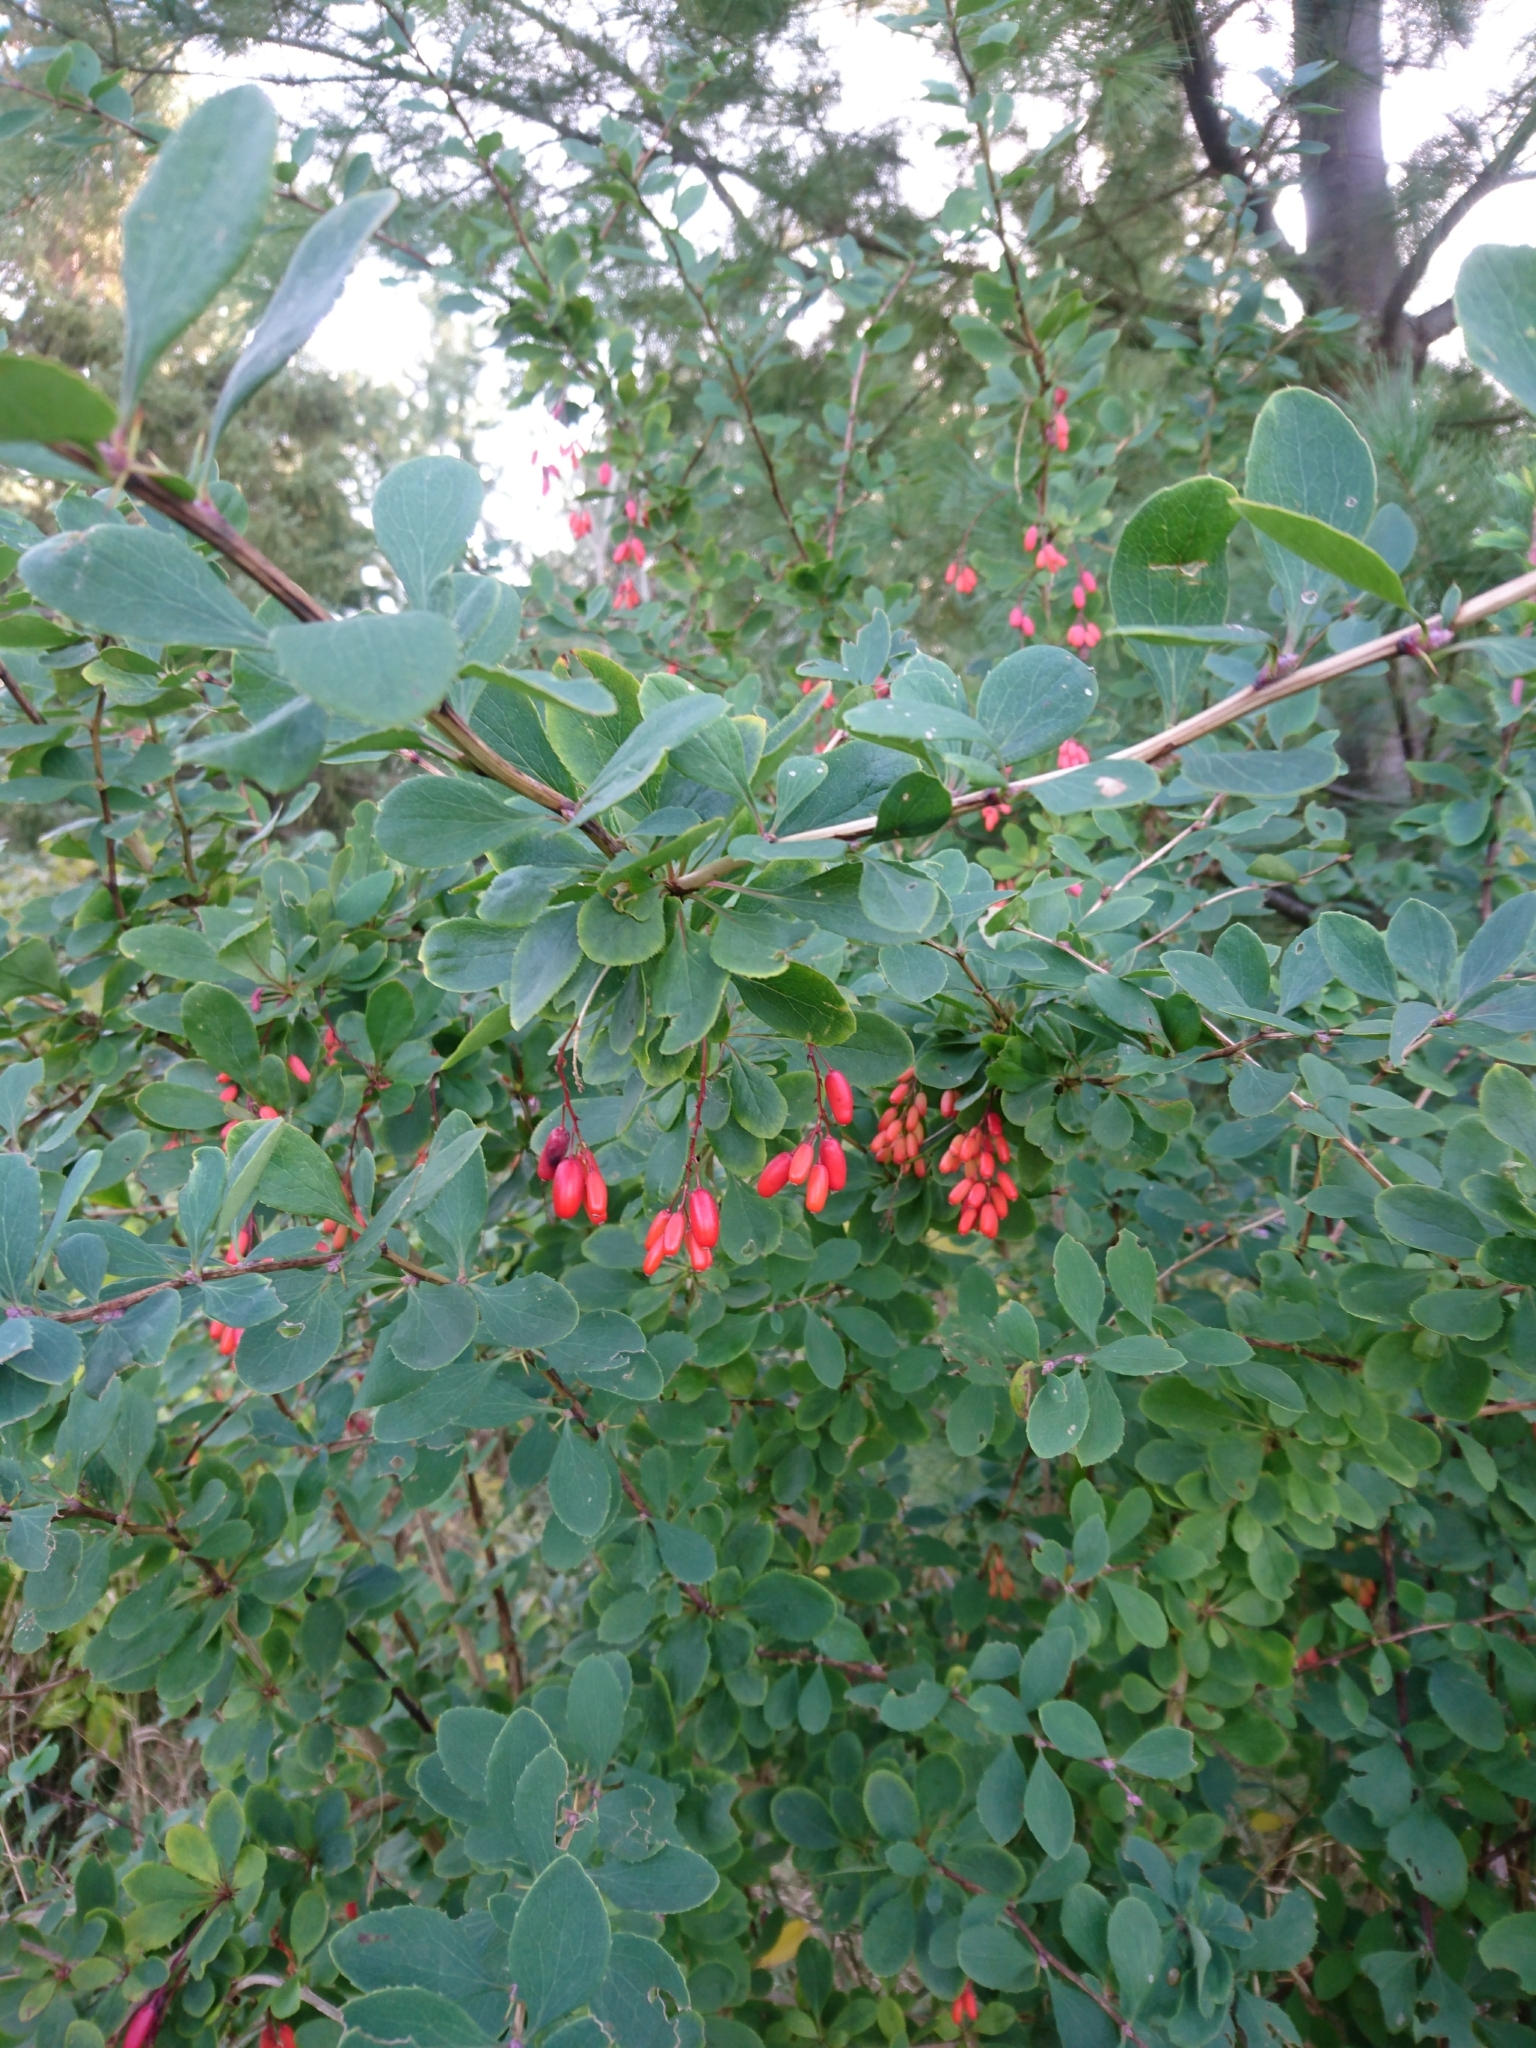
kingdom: Plantae
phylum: Tracheophyta
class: Magnoliopsida
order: Ranunculales
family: Berberidaceae
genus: Berberis
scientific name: Berberis vulgaris
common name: Barberry
